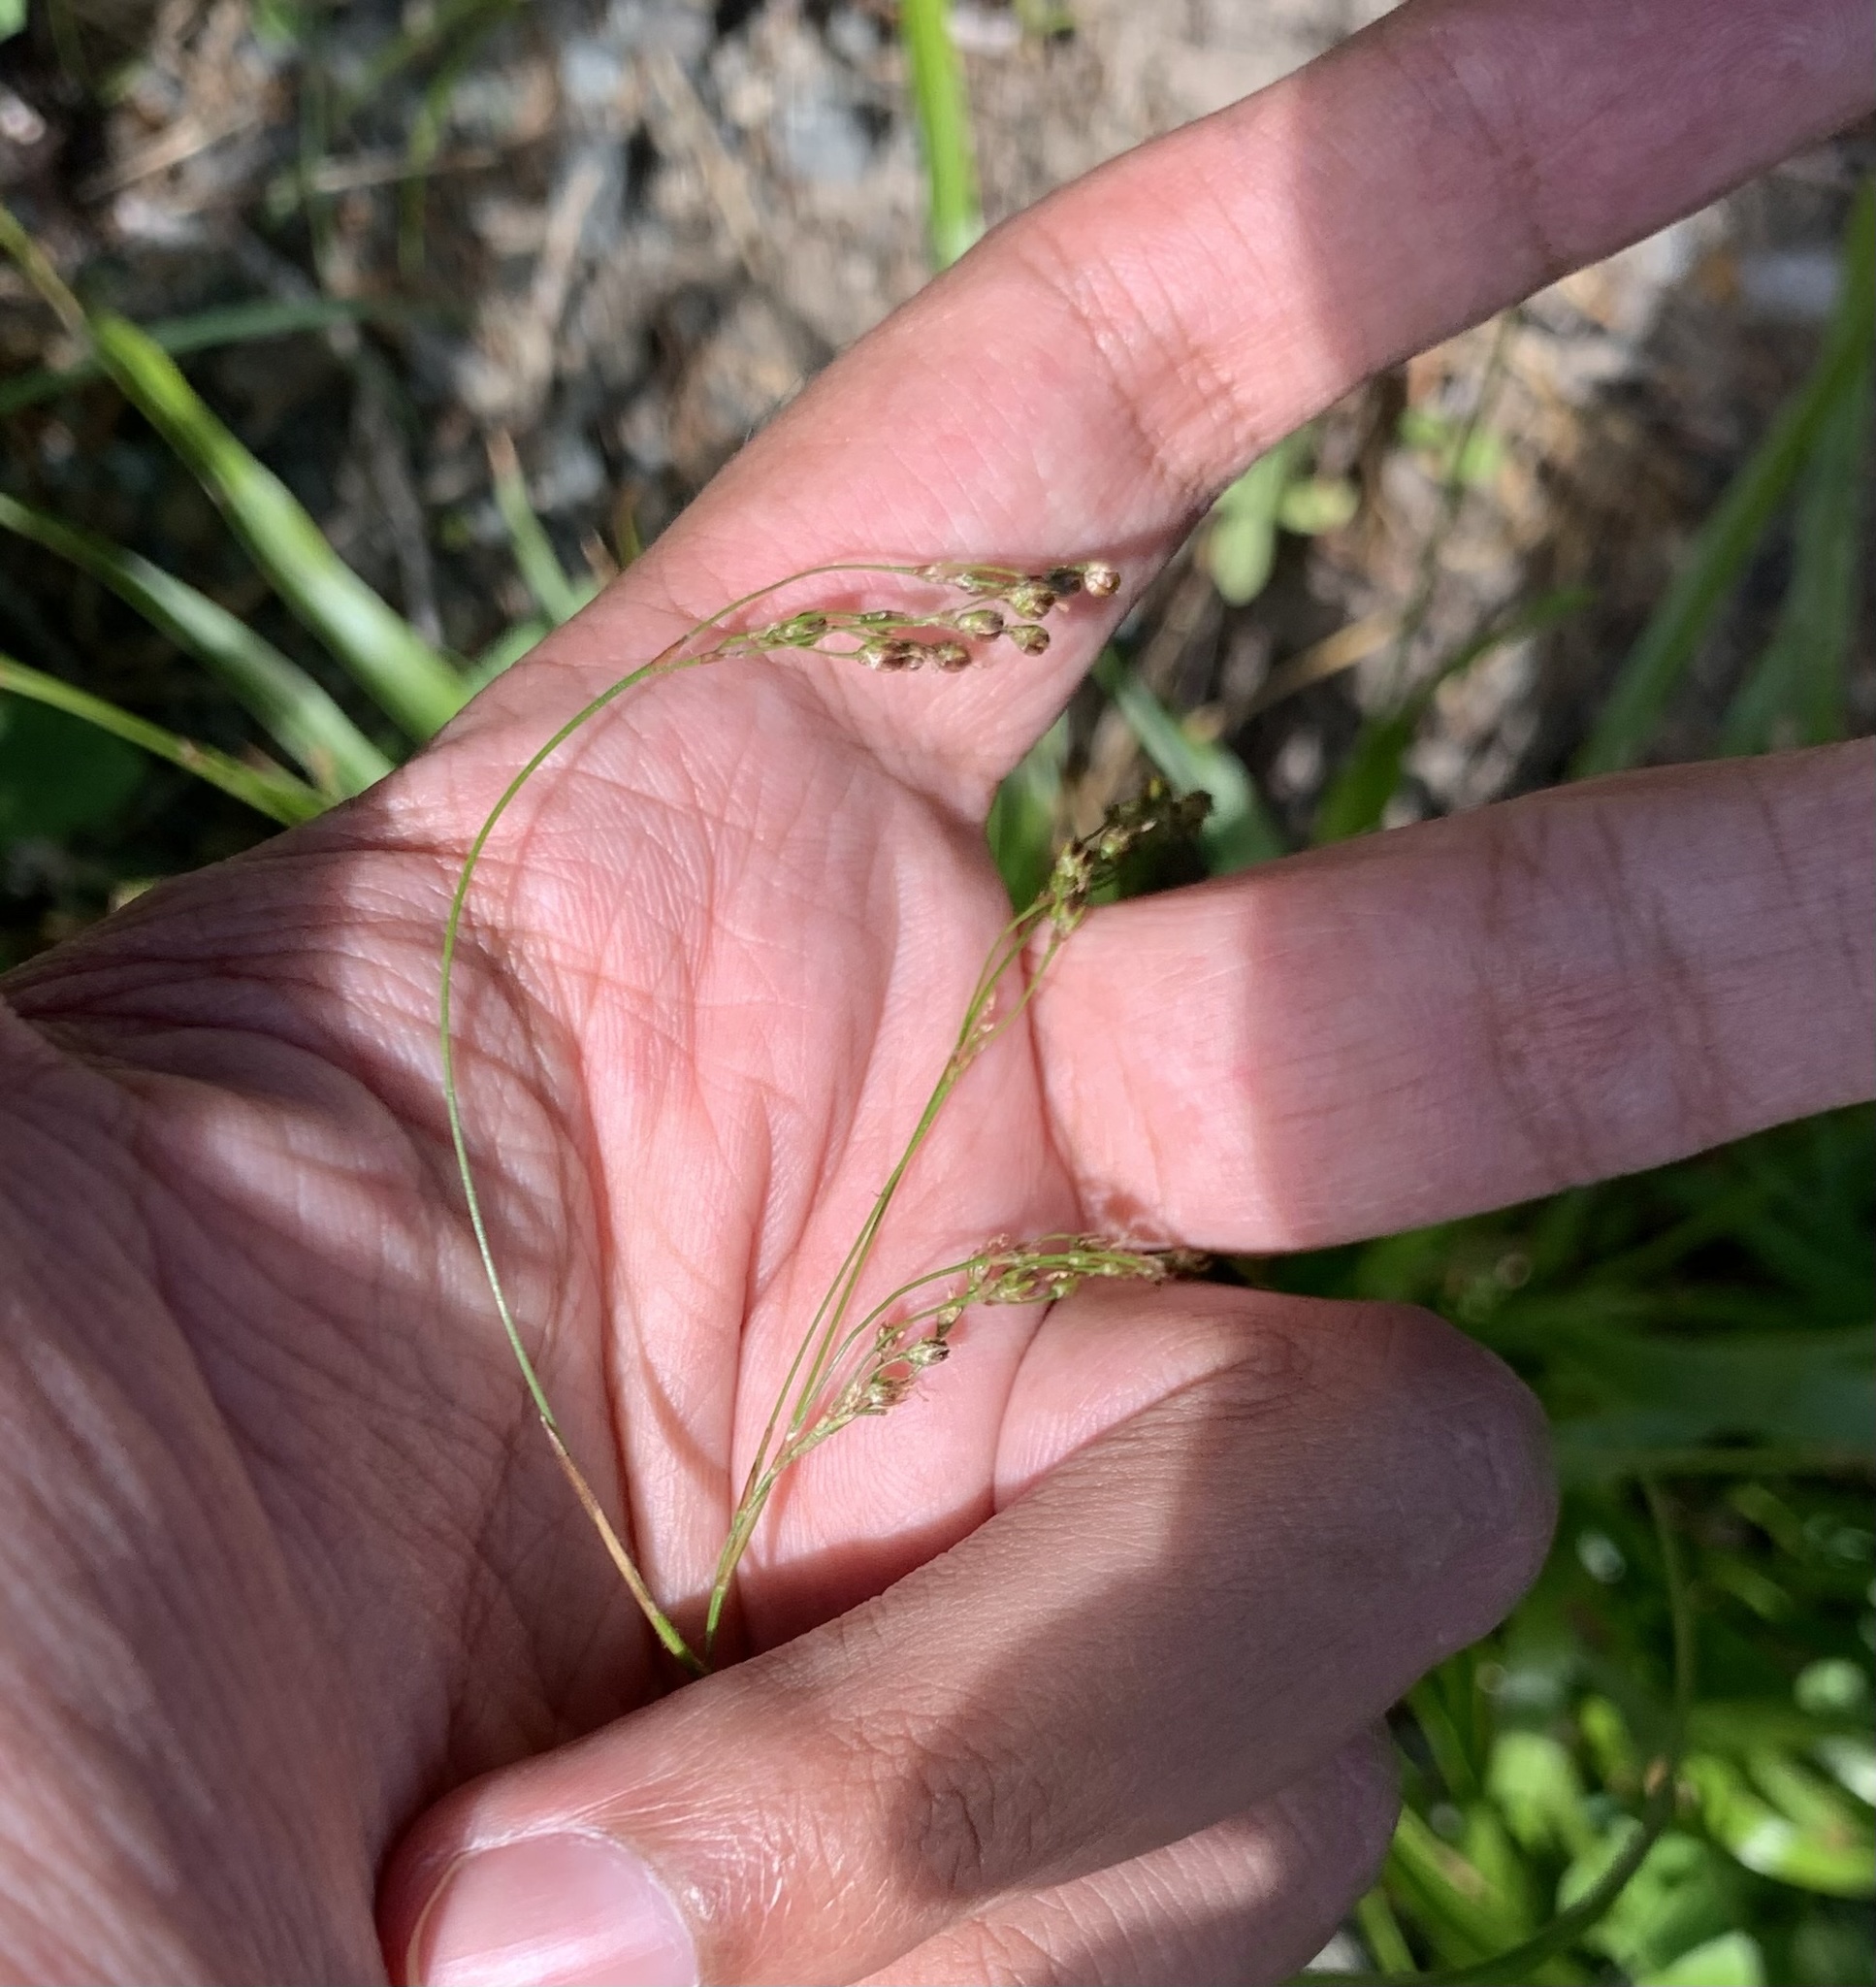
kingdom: Plantae
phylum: Tracheophyta
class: Liliopsida
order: Poales
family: Juncaceae
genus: Luzula
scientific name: Luzula parviflora
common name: Millet woodrush
